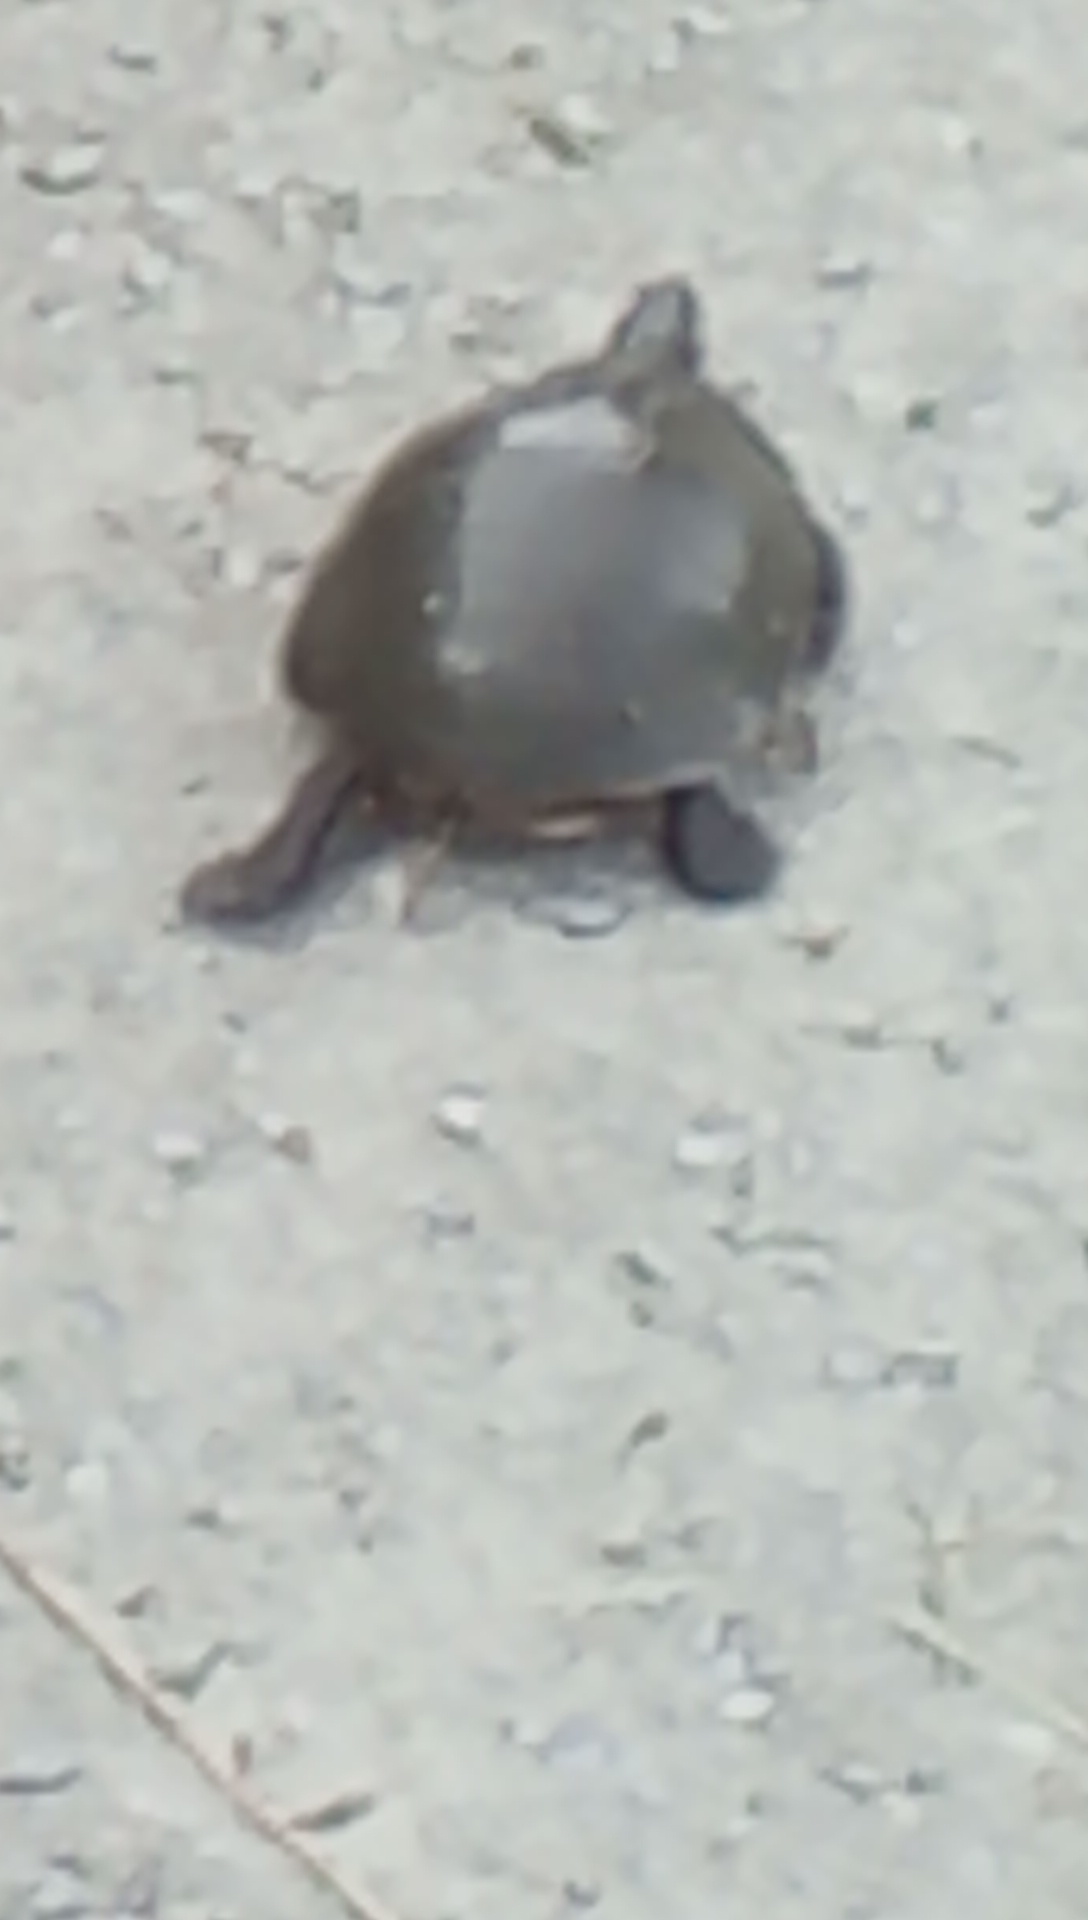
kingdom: Animalia
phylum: Chordata
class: Testudines
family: Emydidae
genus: Chrysemys
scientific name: Chrysemys picta
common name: Painted turtle
